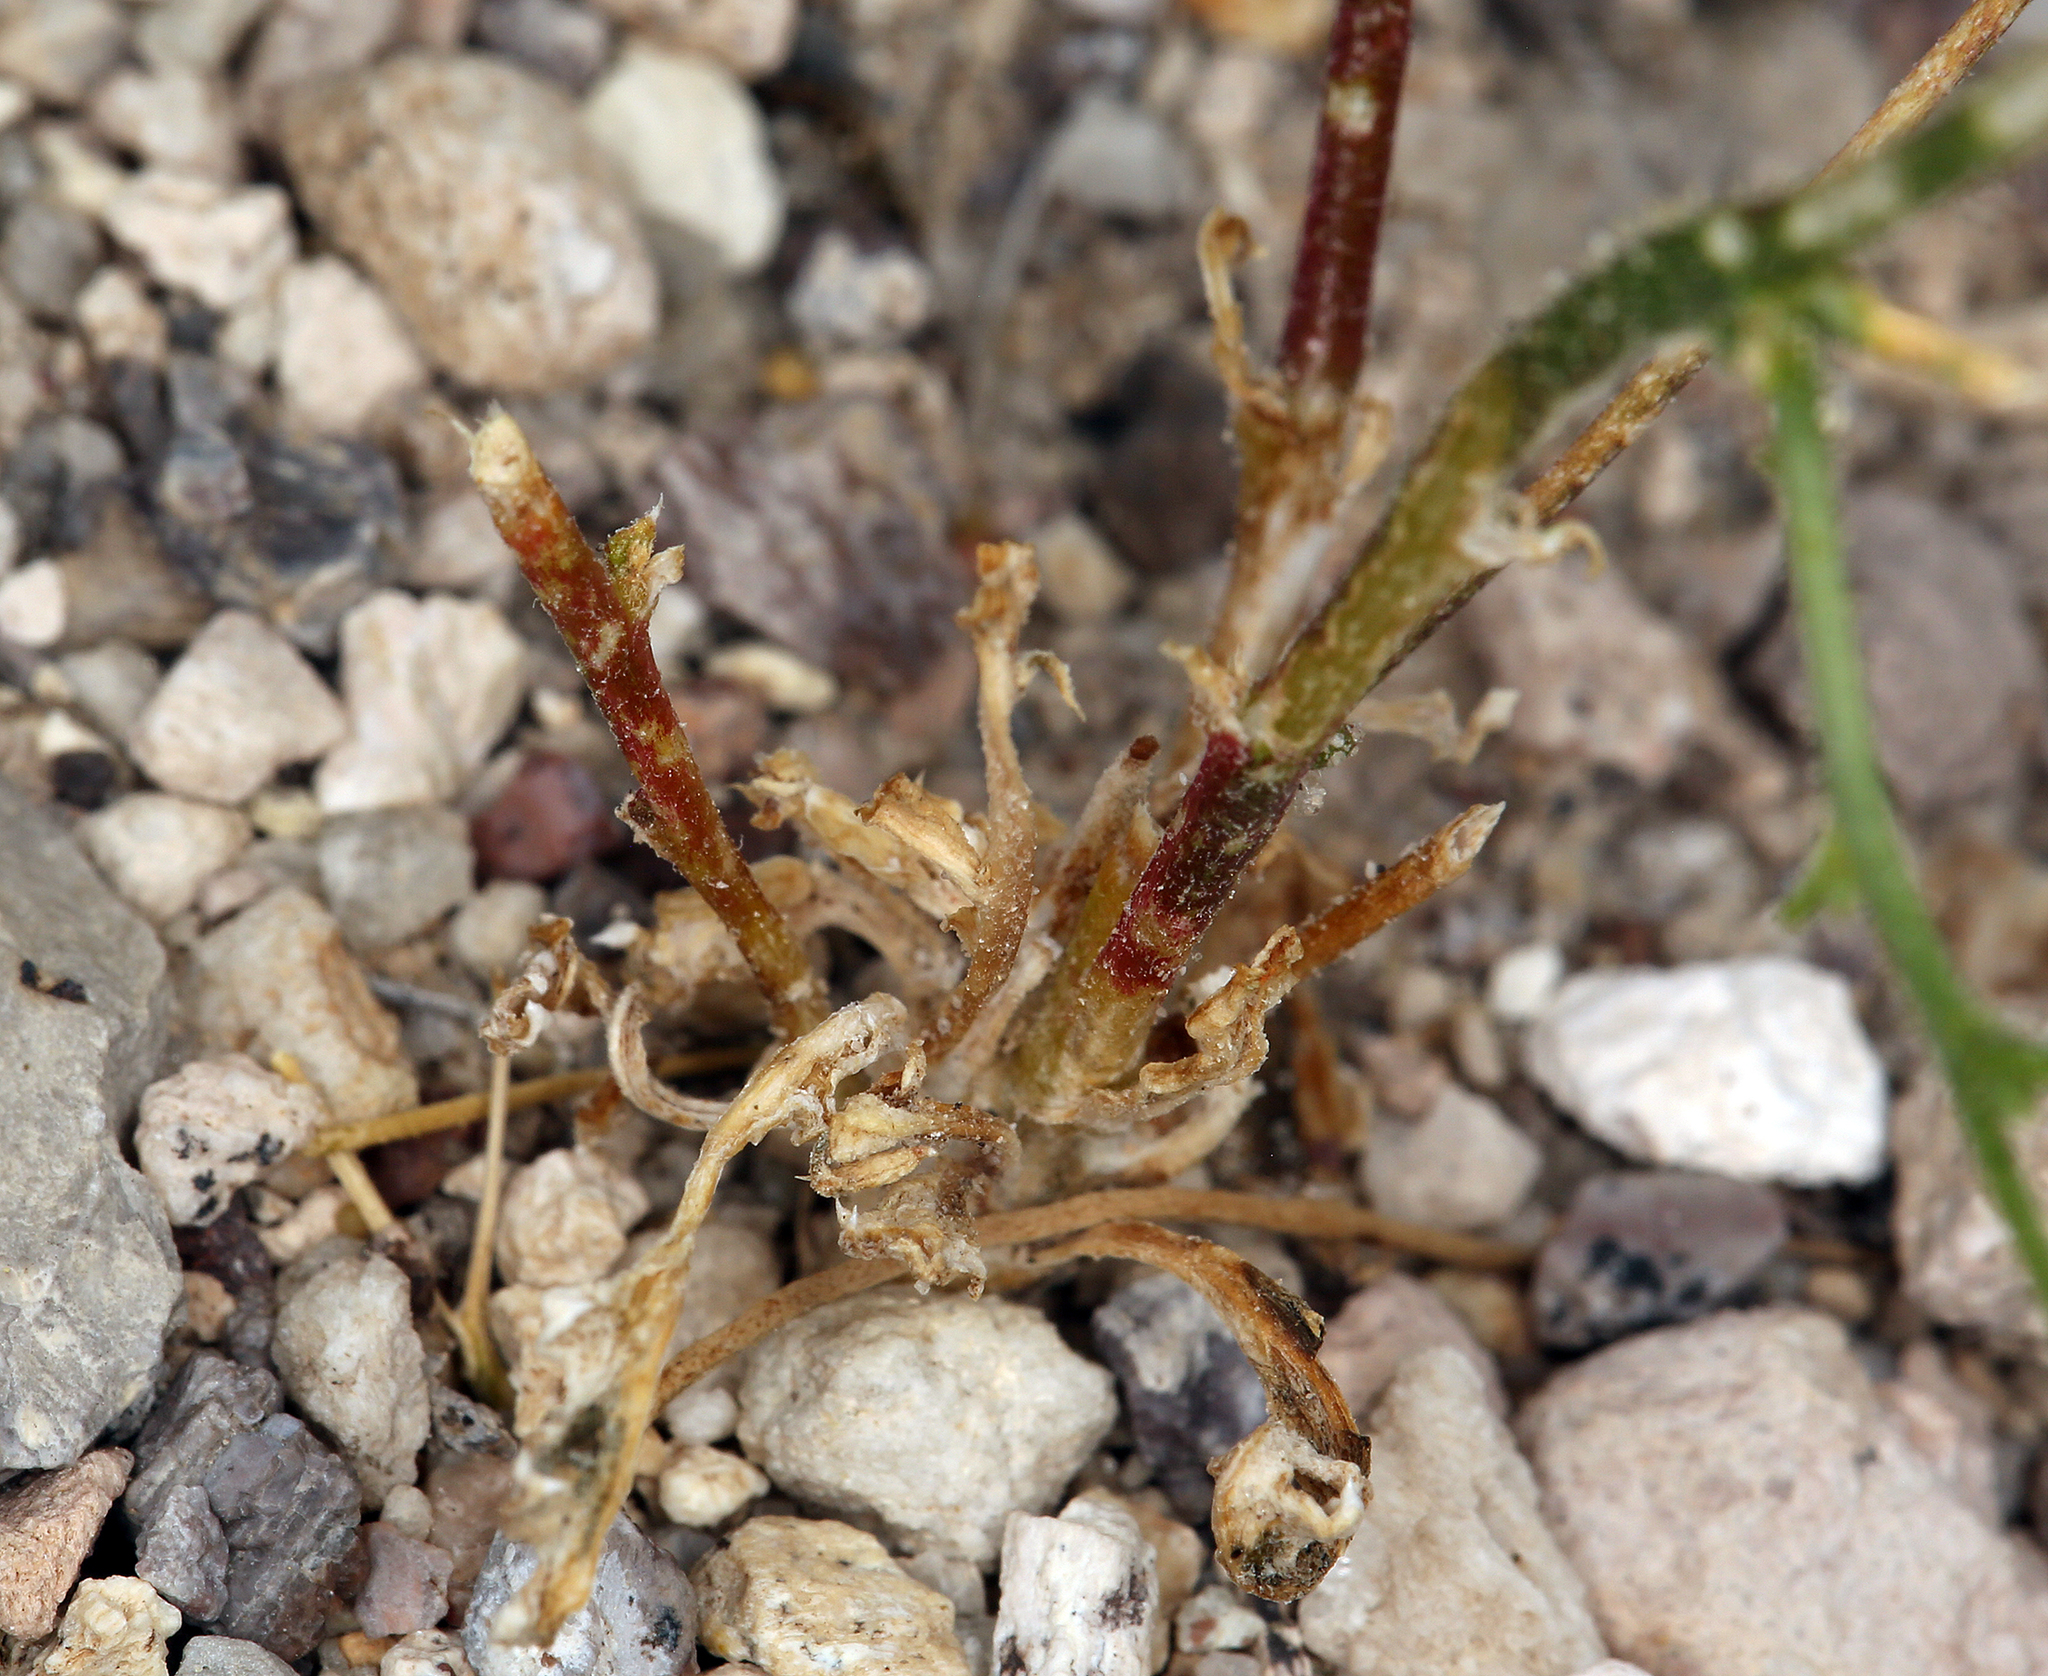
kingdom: Plantae
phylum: Tracheophyta
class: Magnoliopsida
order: Ericales
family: Polemoniaceae
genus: Aliciella
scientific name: Aliciella monoensis
